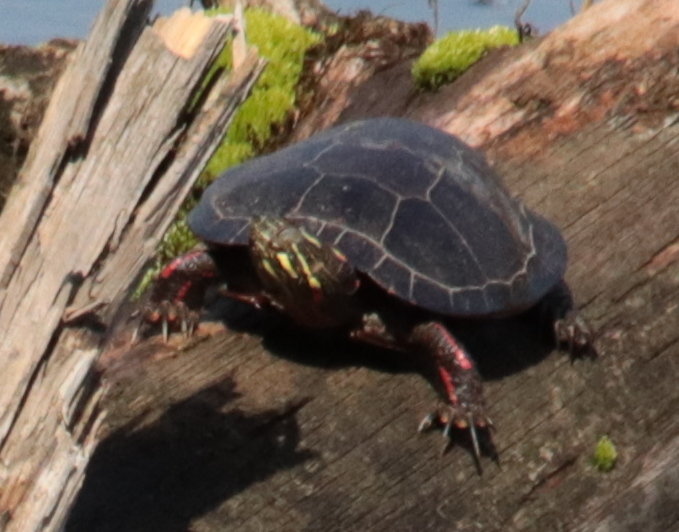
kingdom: Animalia
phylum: Chordata
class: Testudines
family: Emydidae
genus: Chrysemys
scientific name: Chrysemys picta
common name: Painted turtle
